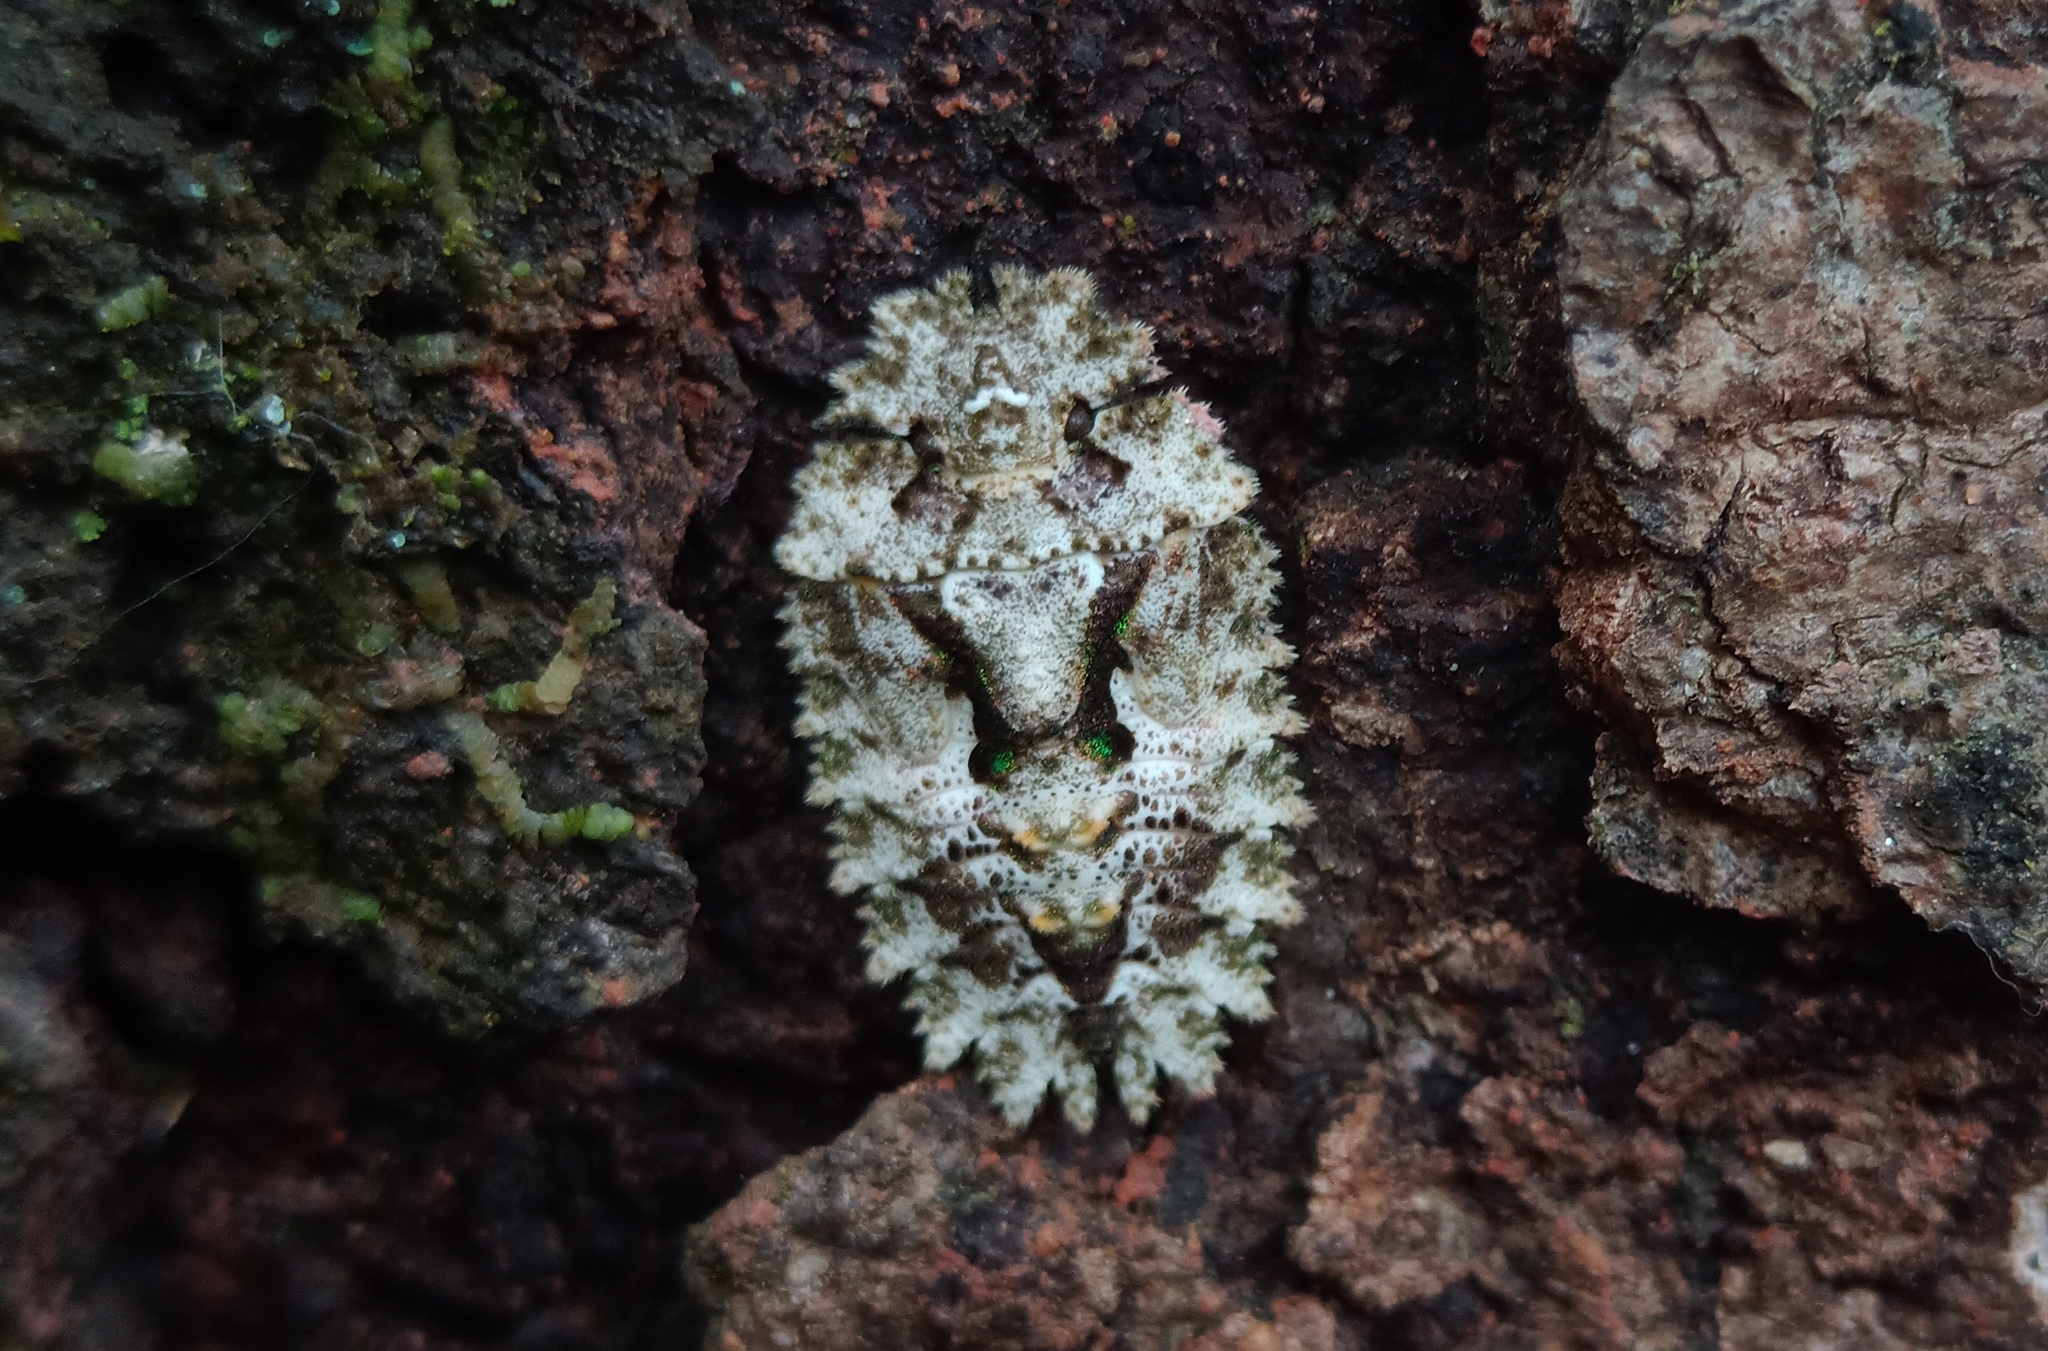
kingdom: Animalia
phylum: Arthropoda
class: Insecta
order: Hemiptera
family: Phloeidae
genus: Phloeophana
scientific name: Phloeophana longirostris
